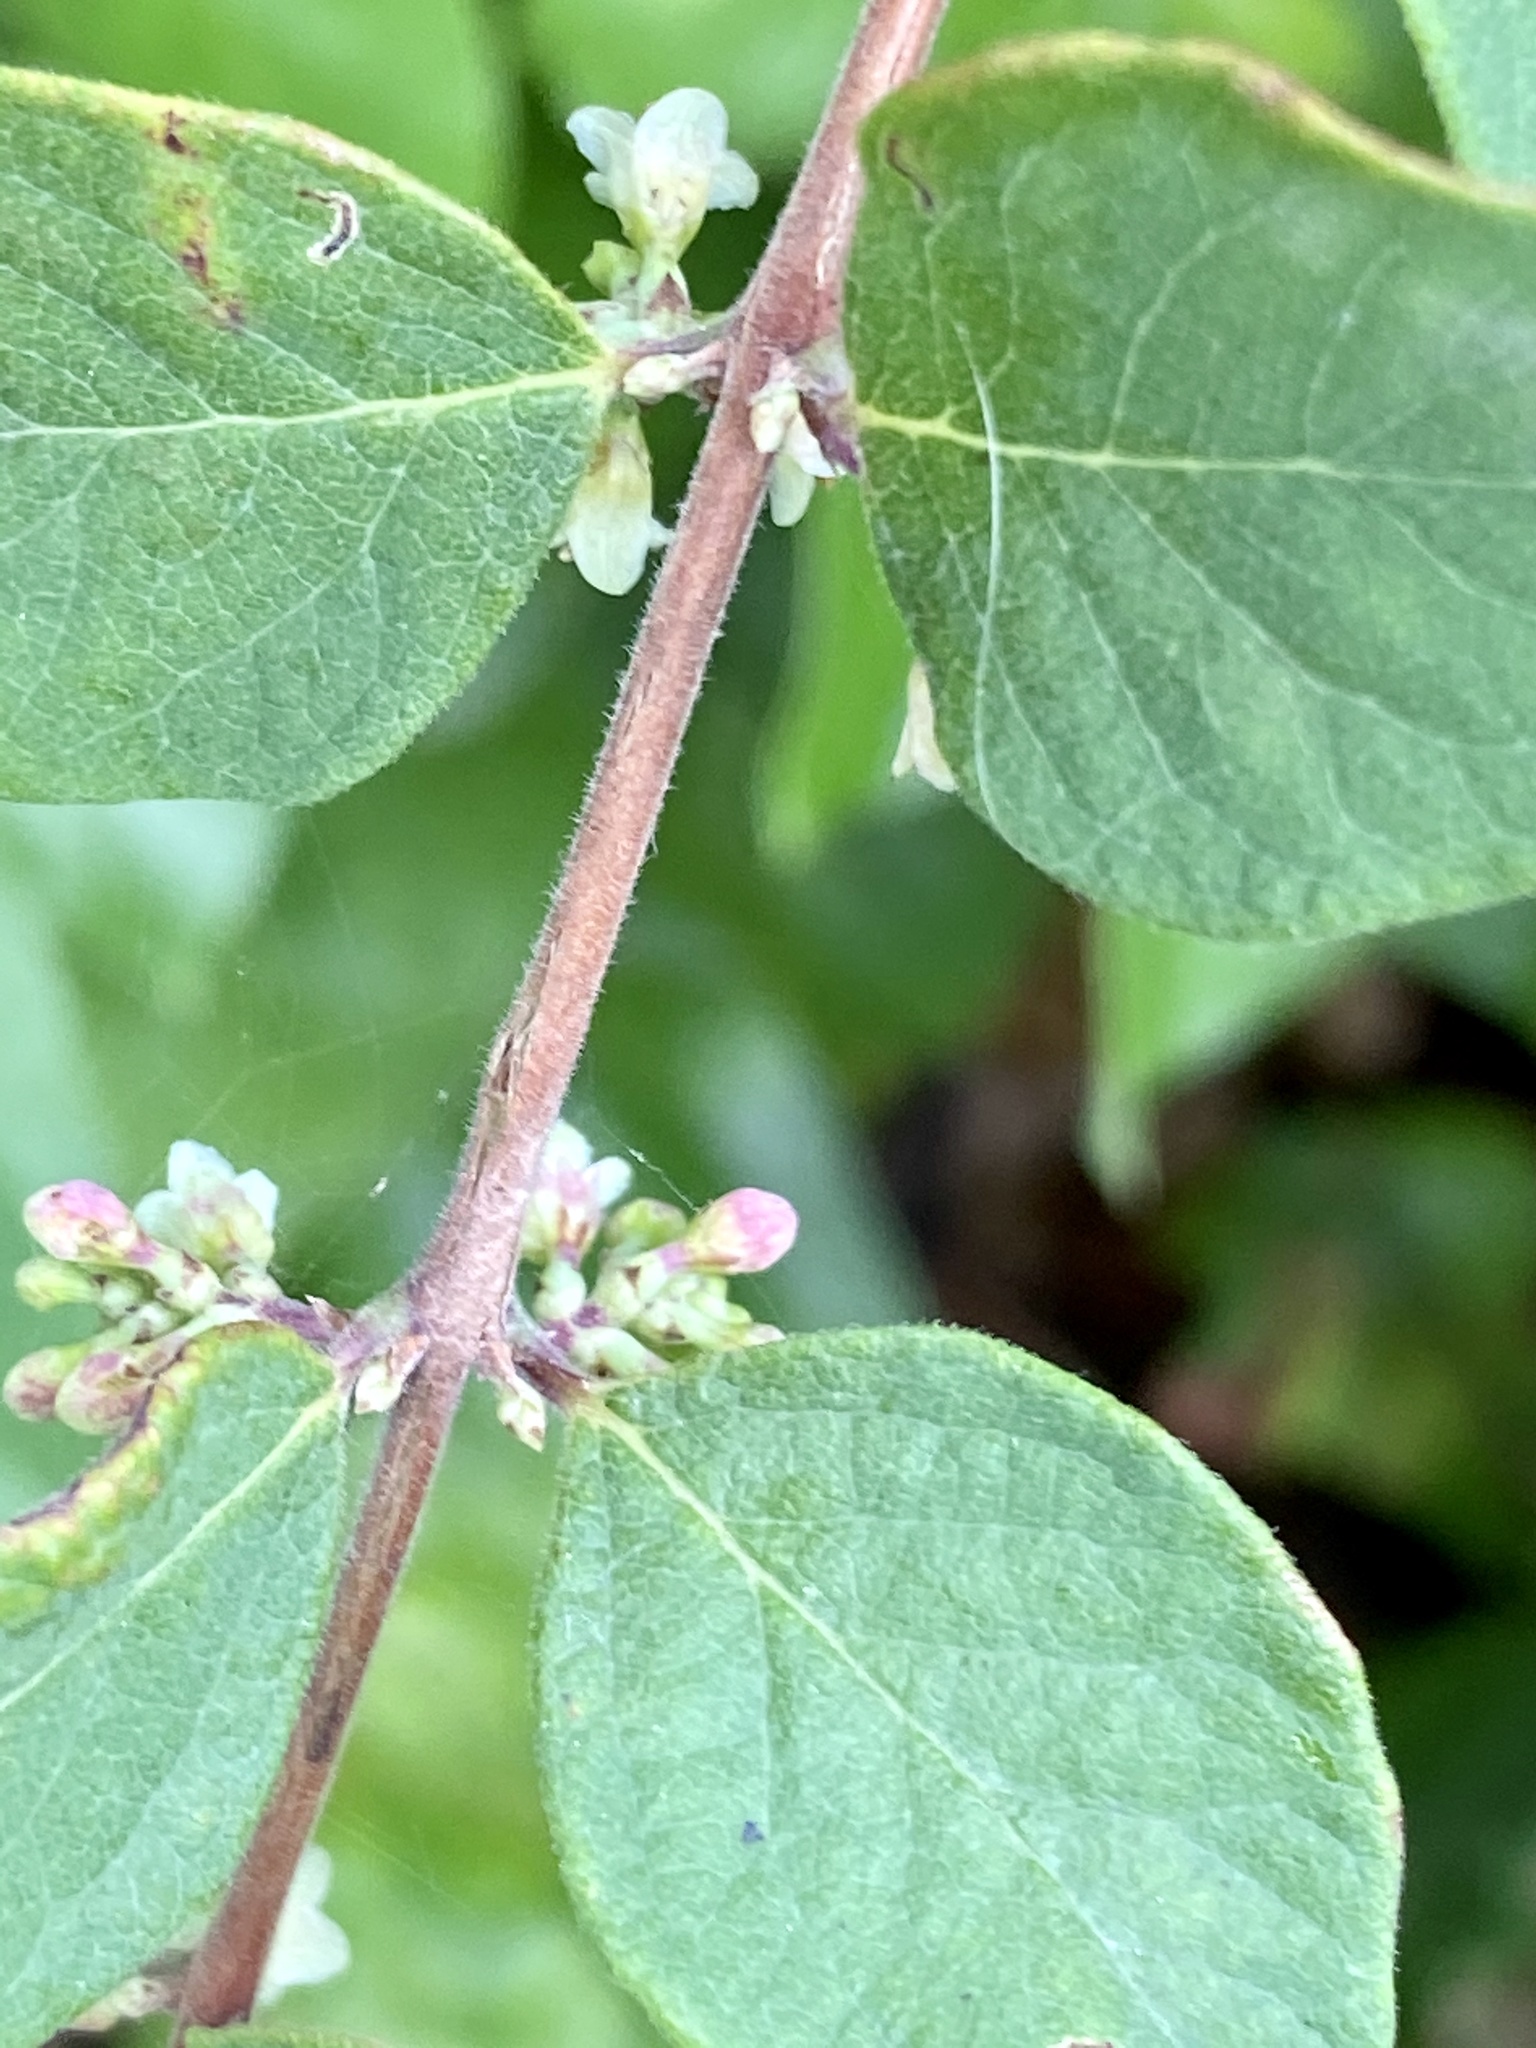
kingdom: Plantae
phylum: Tracheophyta
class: Magnoliopsida
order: Dipsacales
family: Caprifoliaceae
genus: Symphoricarpos
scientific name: Symphoricarpos orbiculatus
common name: Coralberry
